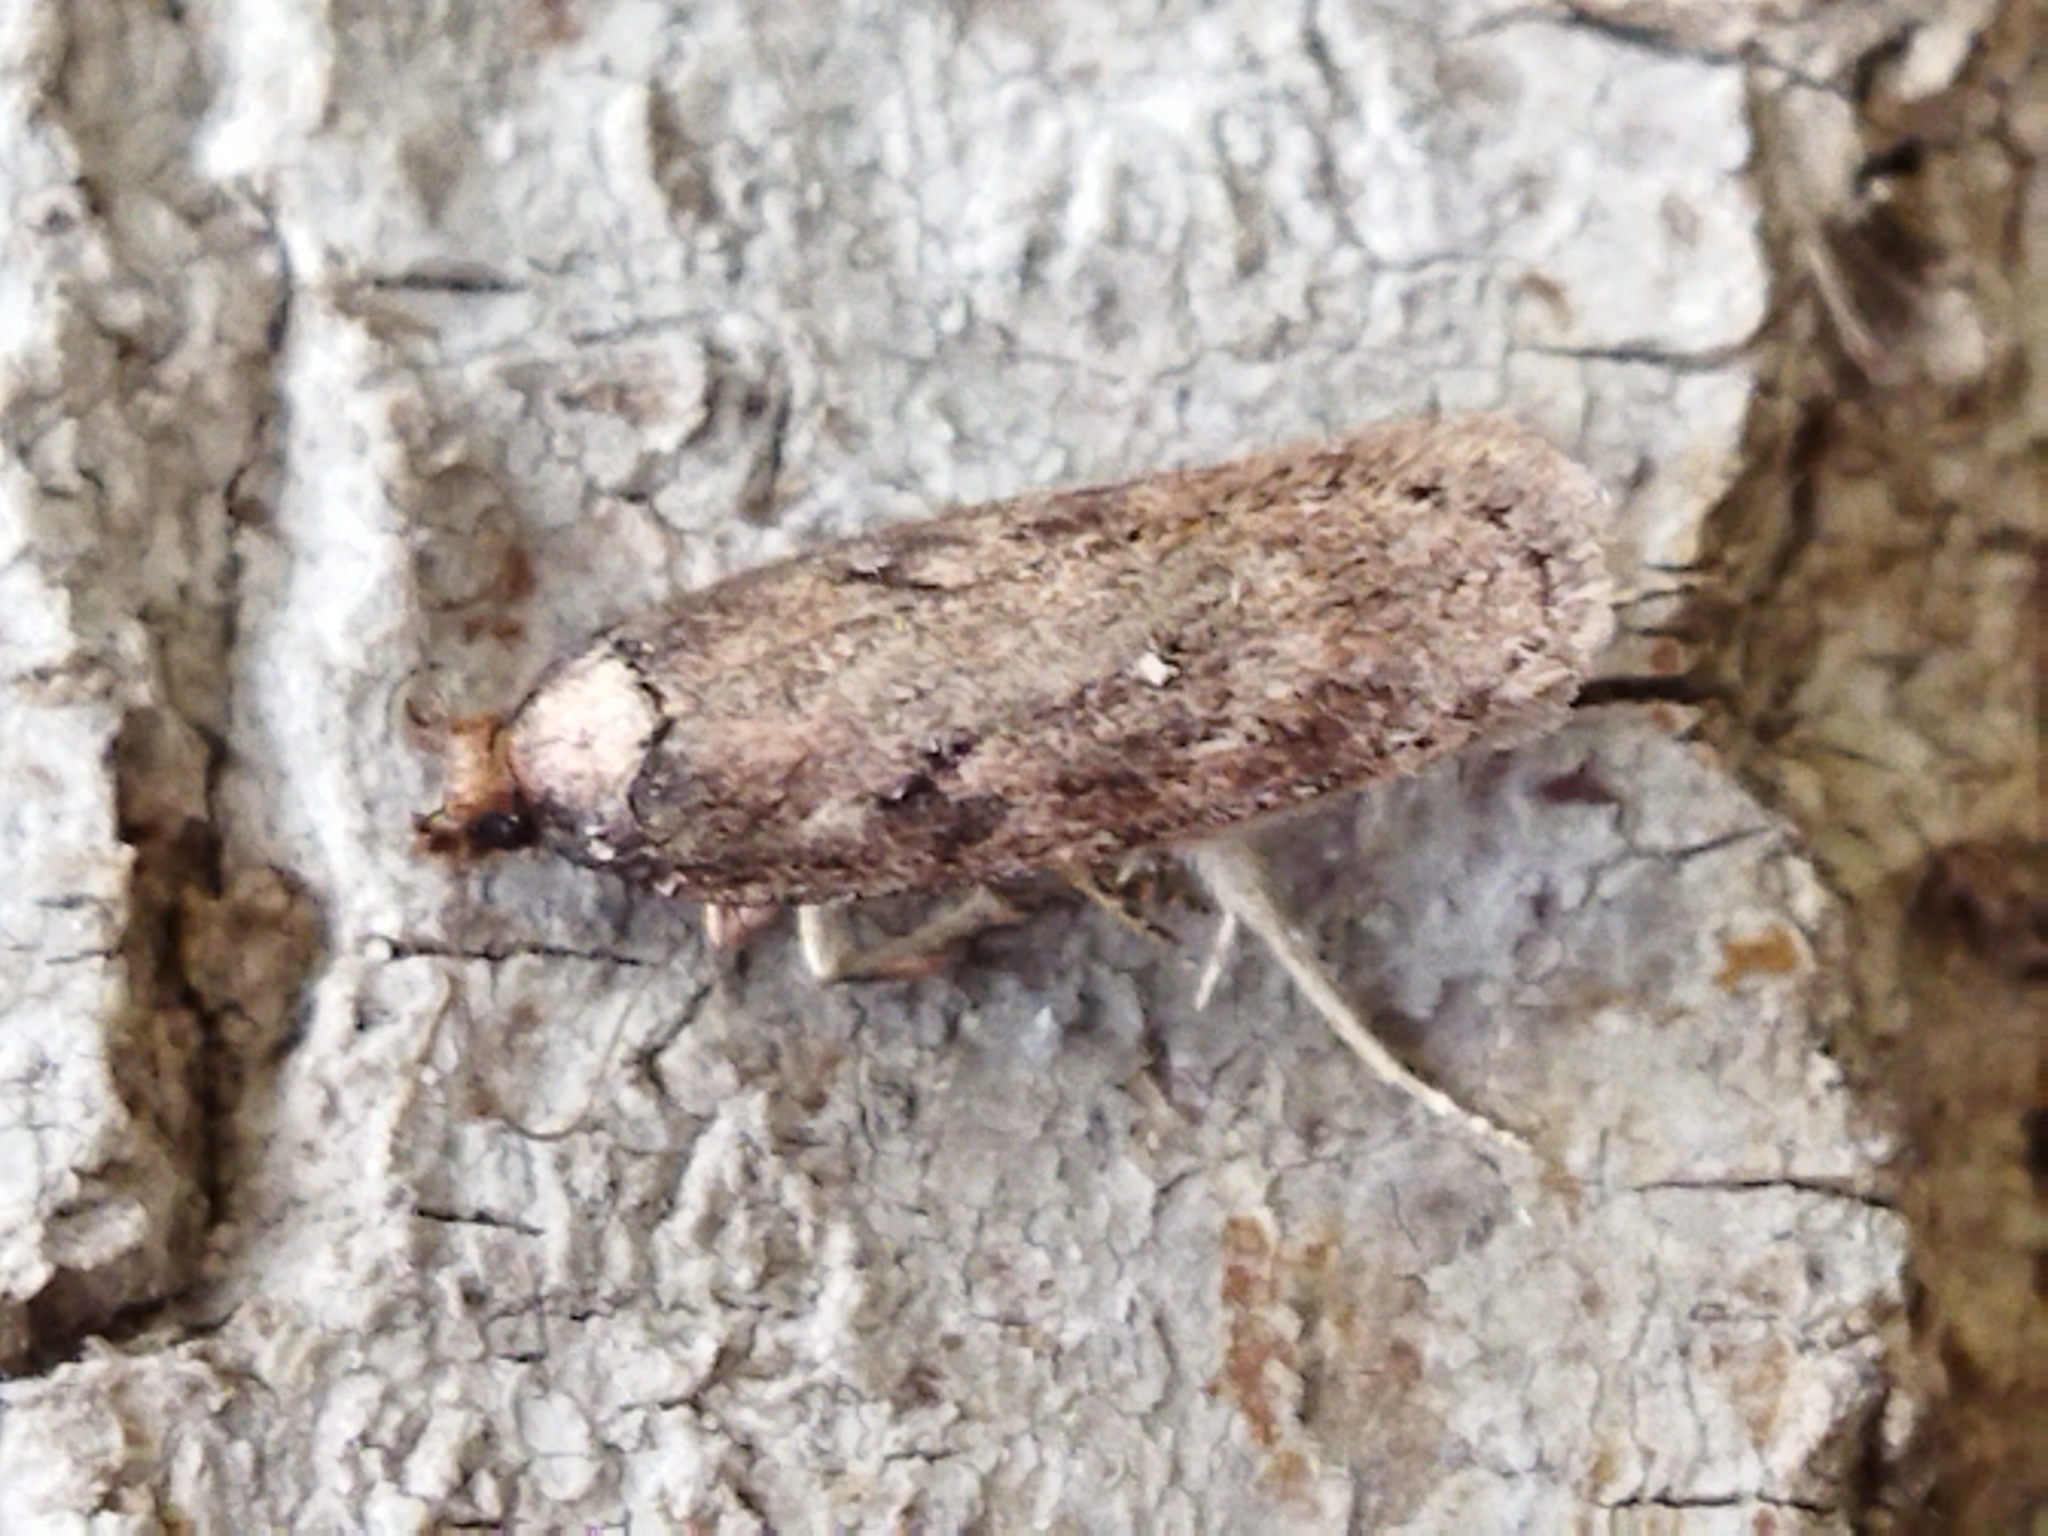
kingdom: Animalia
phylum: Arthropoda
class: Insecta
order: Lepidoptera
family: Depressariidae
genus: Depressaria
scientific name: Depressaria albipunctella
